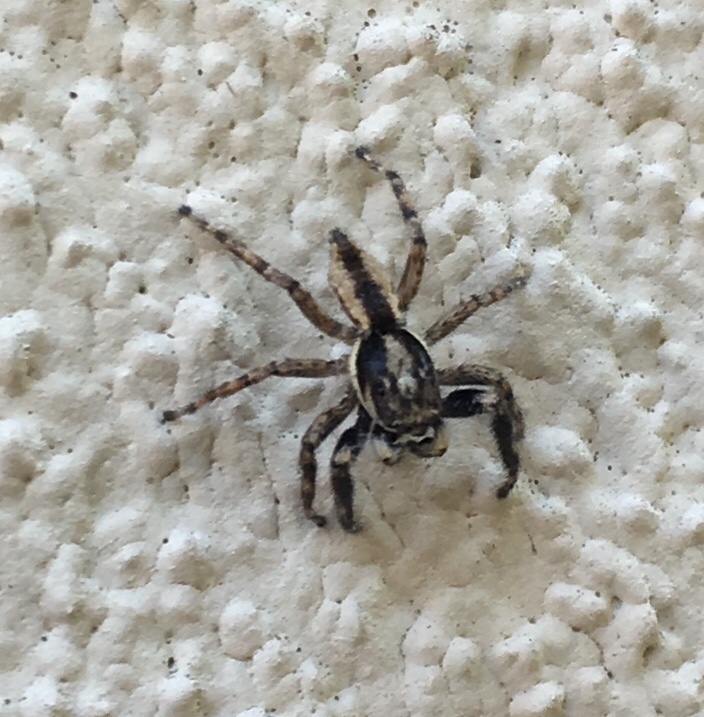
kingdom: Animalia
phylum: Arthropoda
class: Arachnida
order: Araneae
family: Salticidae
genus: Menemerus
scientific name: Menemerus bivittatus
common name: Gray wall jumper
